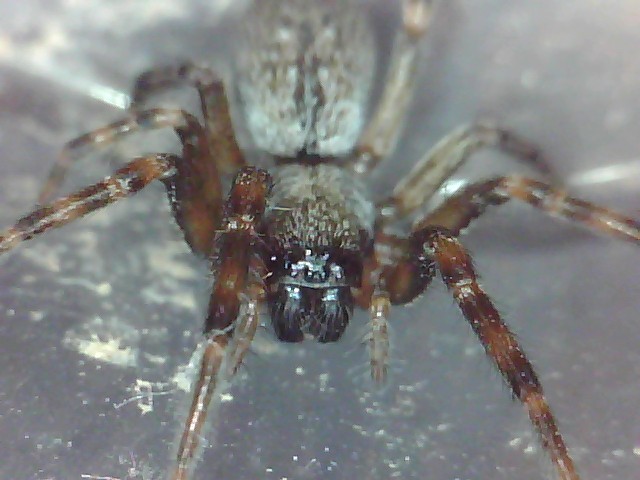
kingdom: Animalia
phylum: Arthropoda
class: Arachnida
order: Araneae
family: Desidae
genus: Badumna
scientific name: Badumna longinqua
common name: Gray house spider
